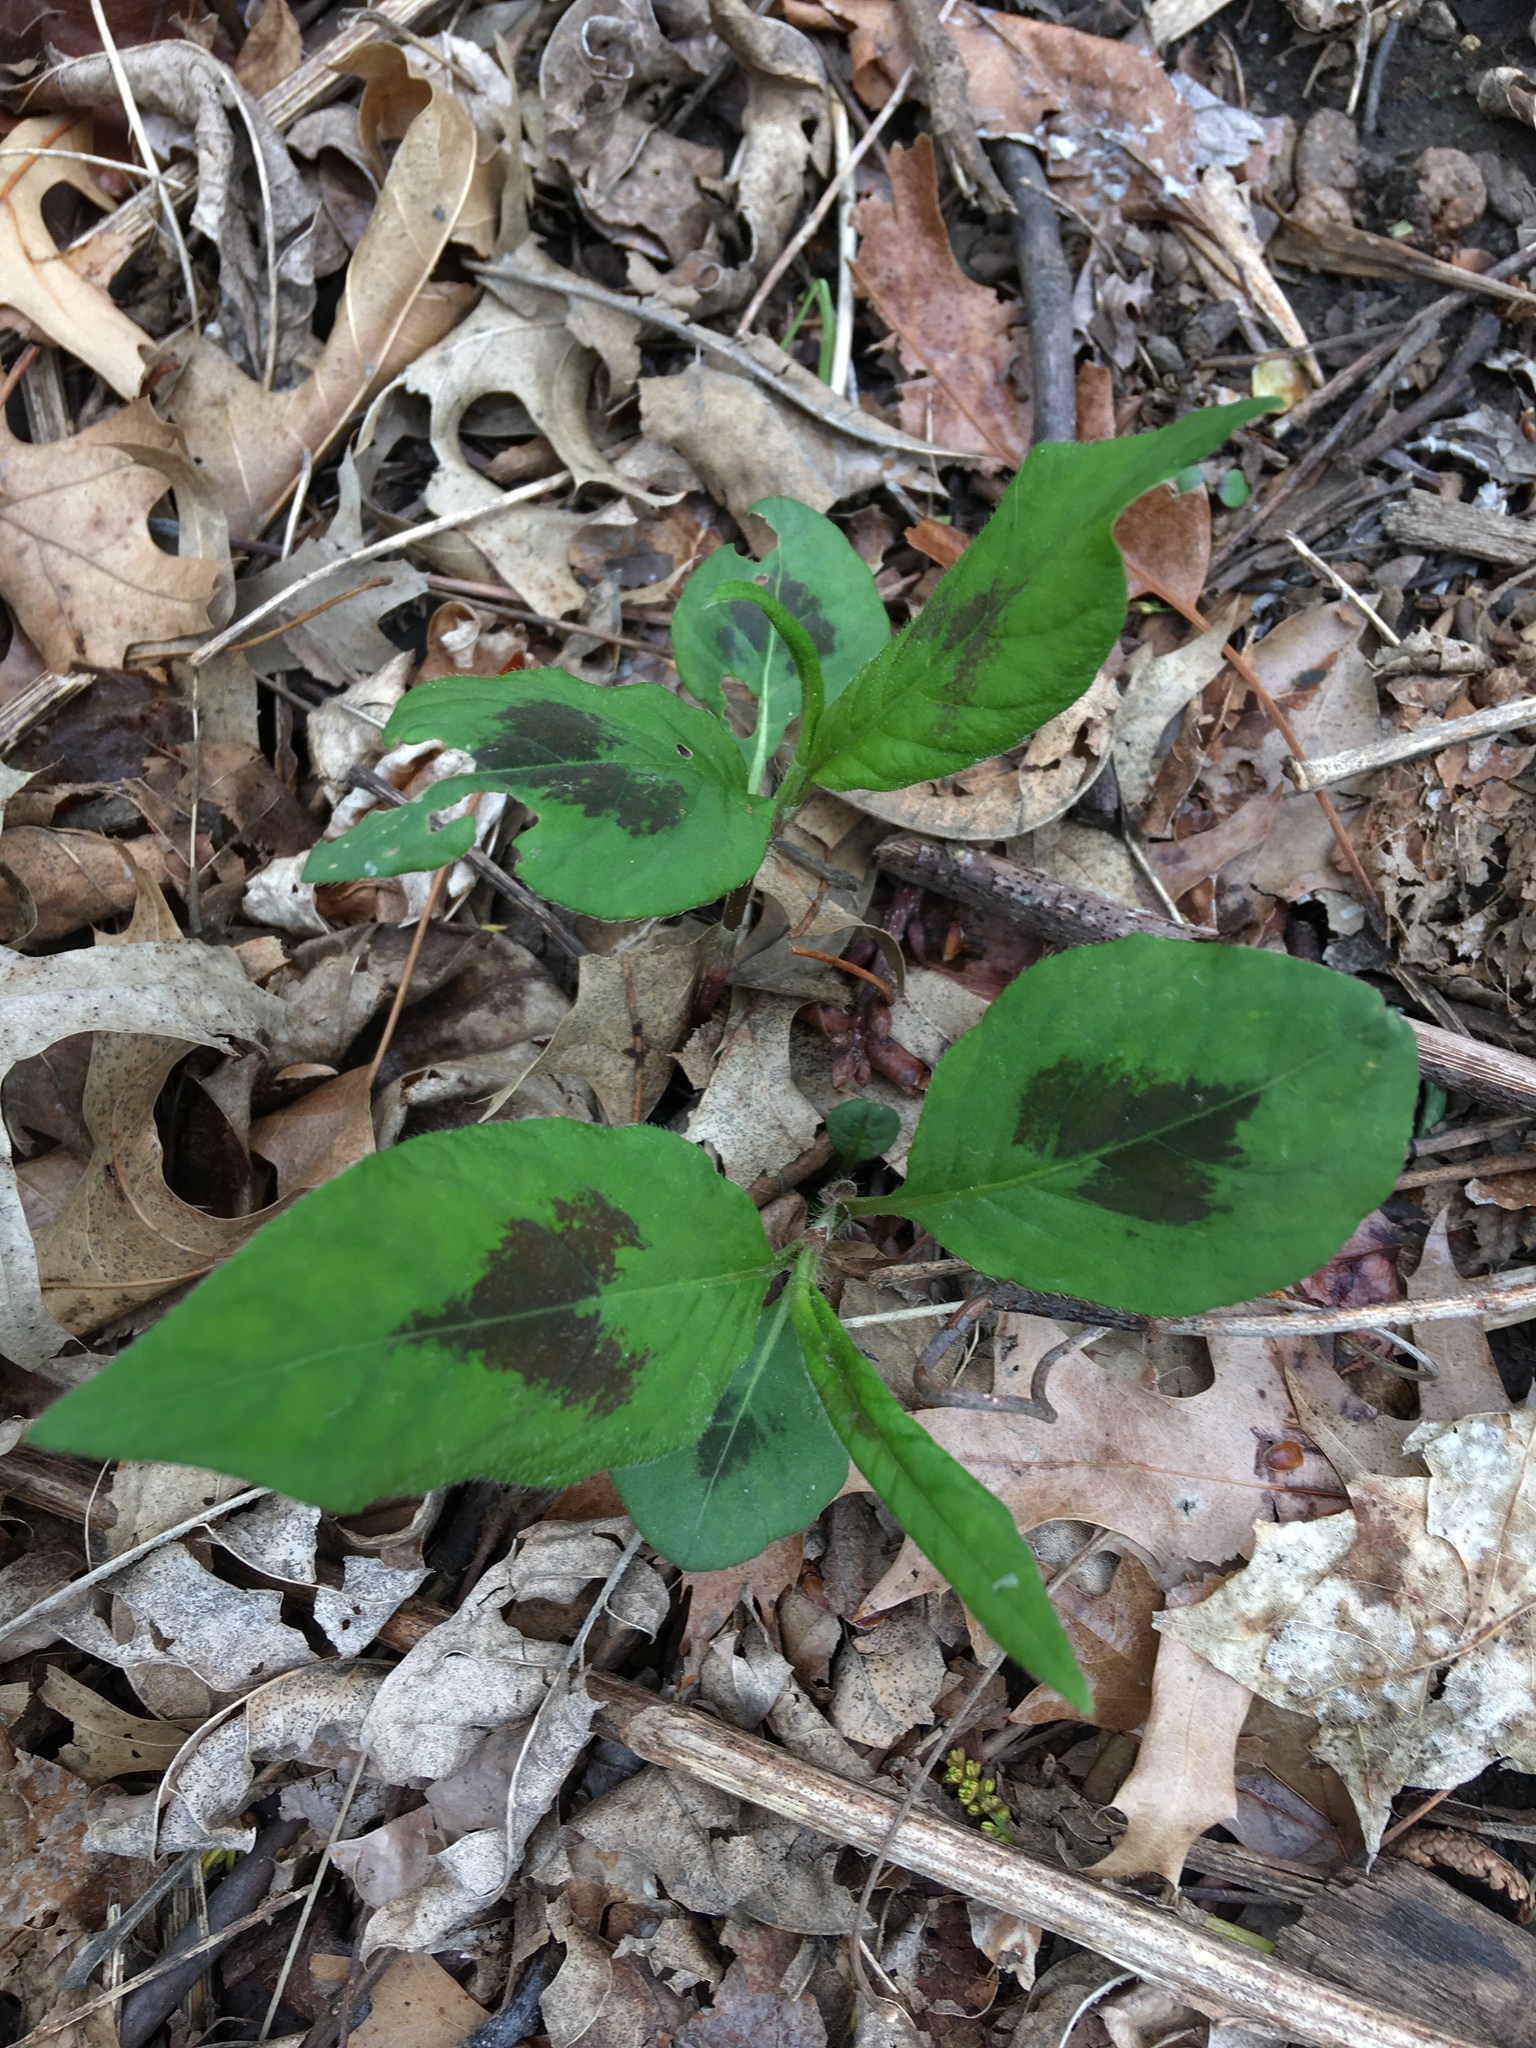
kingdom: Plantae
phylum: Tracheophyta
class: Magnoliopsida
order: Caryophyllales
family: Polygonaceae
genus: Persicaria
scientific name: Persicaria virginiana
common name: Jumpseed
